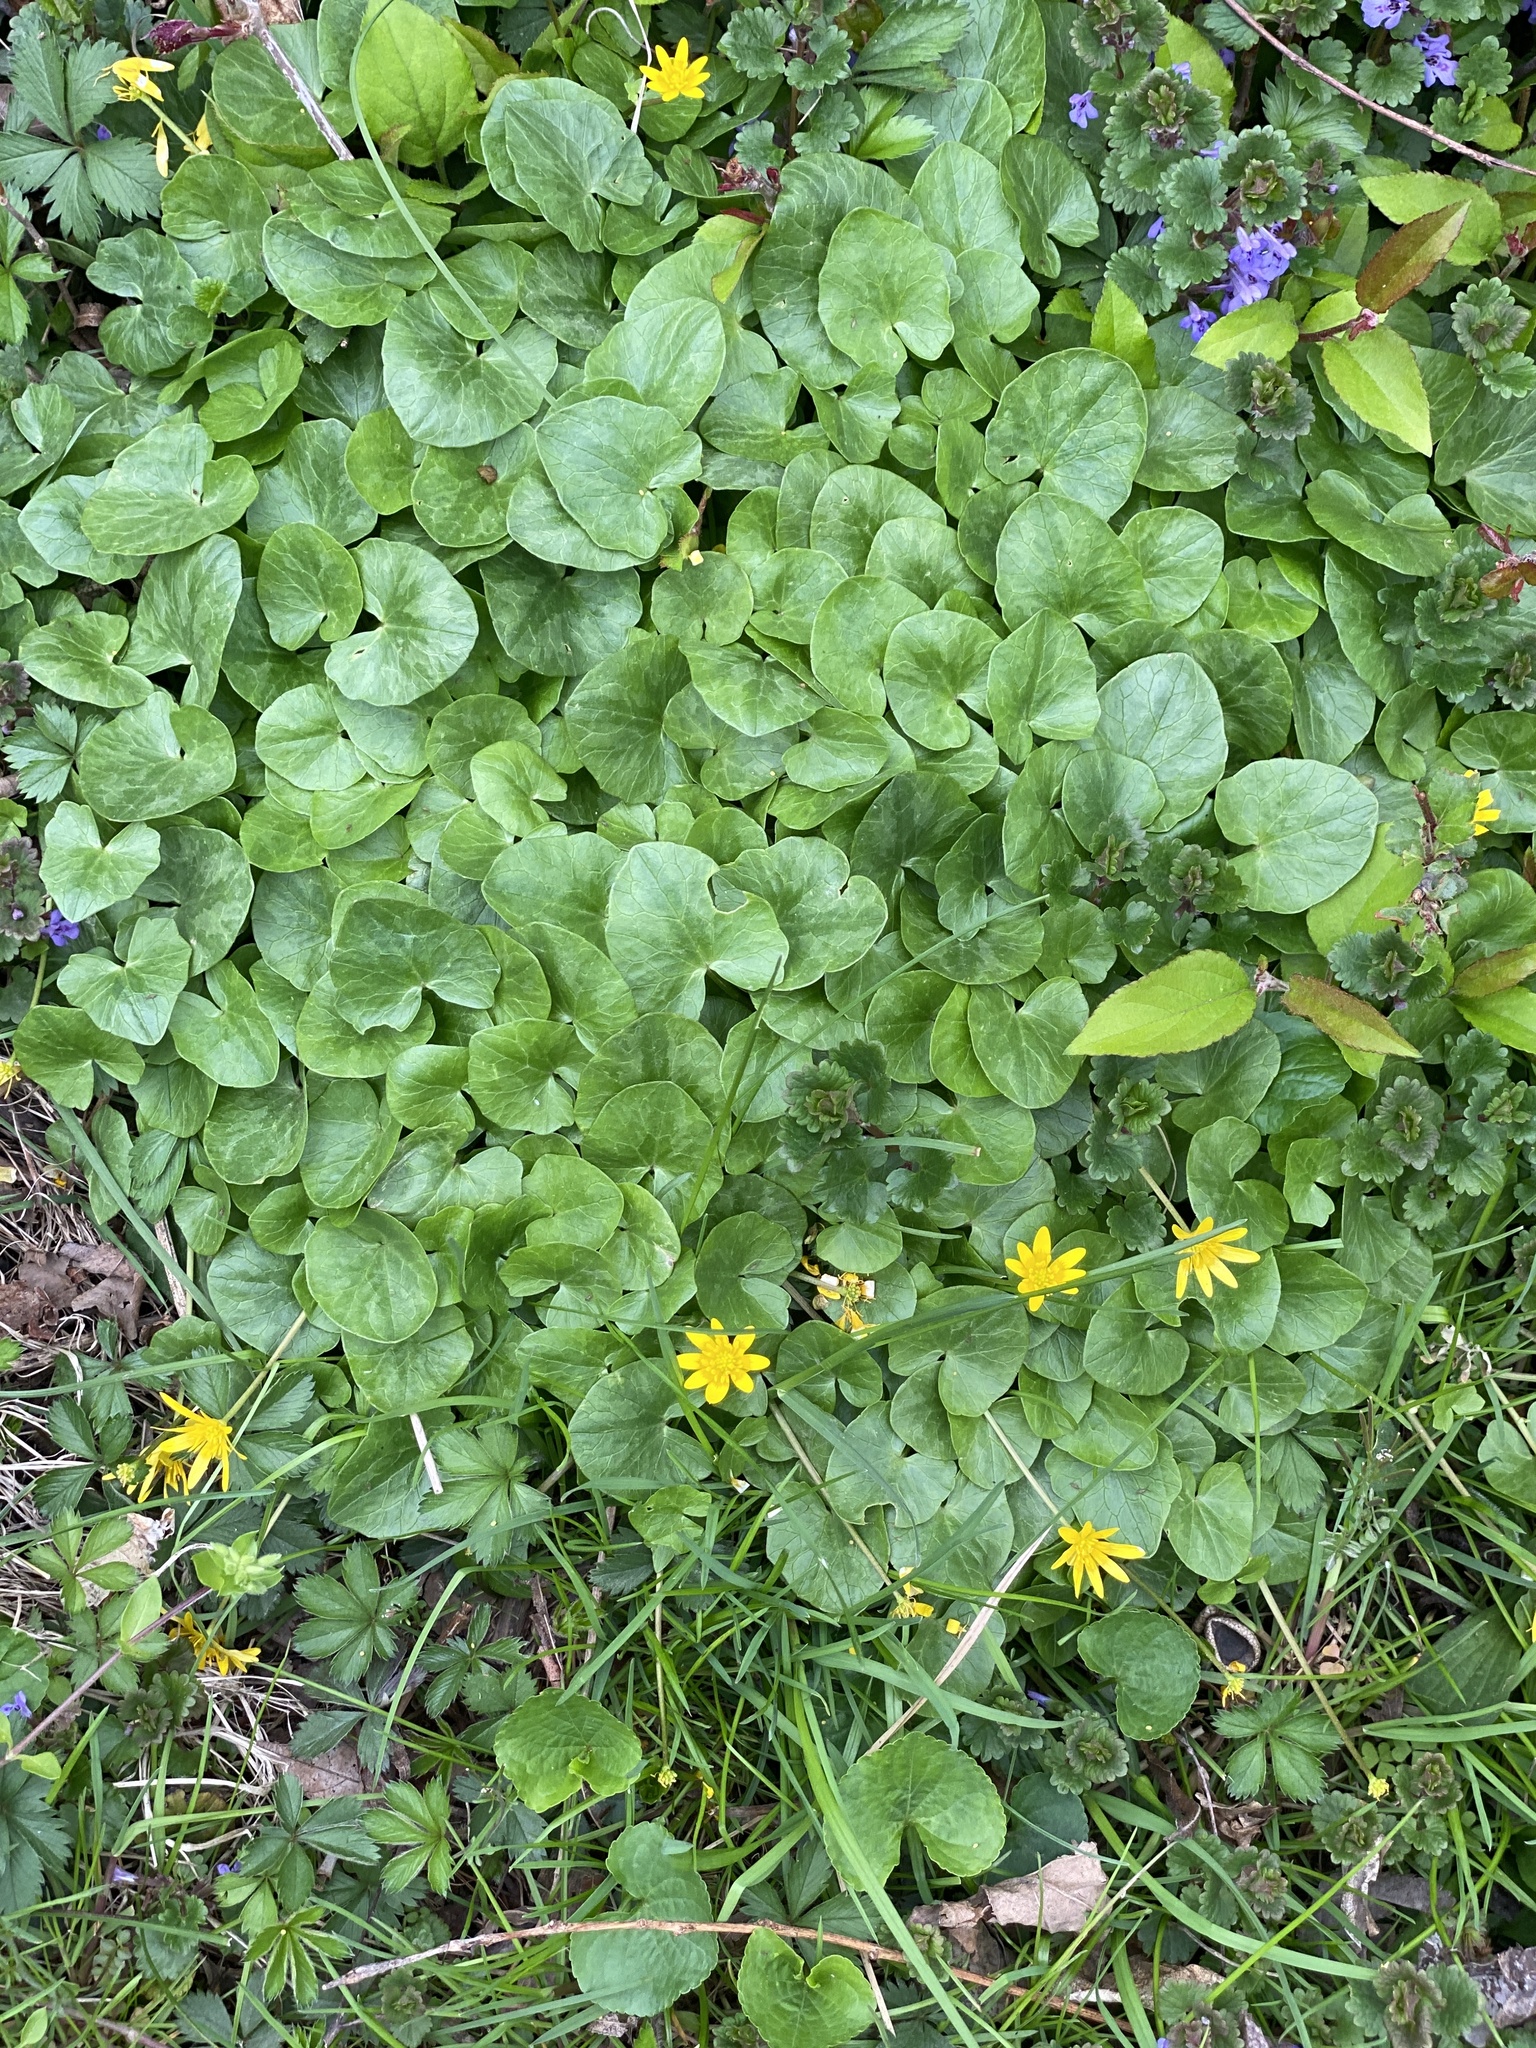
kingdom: Plantae
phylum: Tracheophyta
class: Magnoliopsida
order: Ranunculales
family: Ranunculaceae
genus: Ficaria
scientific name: Ficaria verna
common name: Lesser celandine
